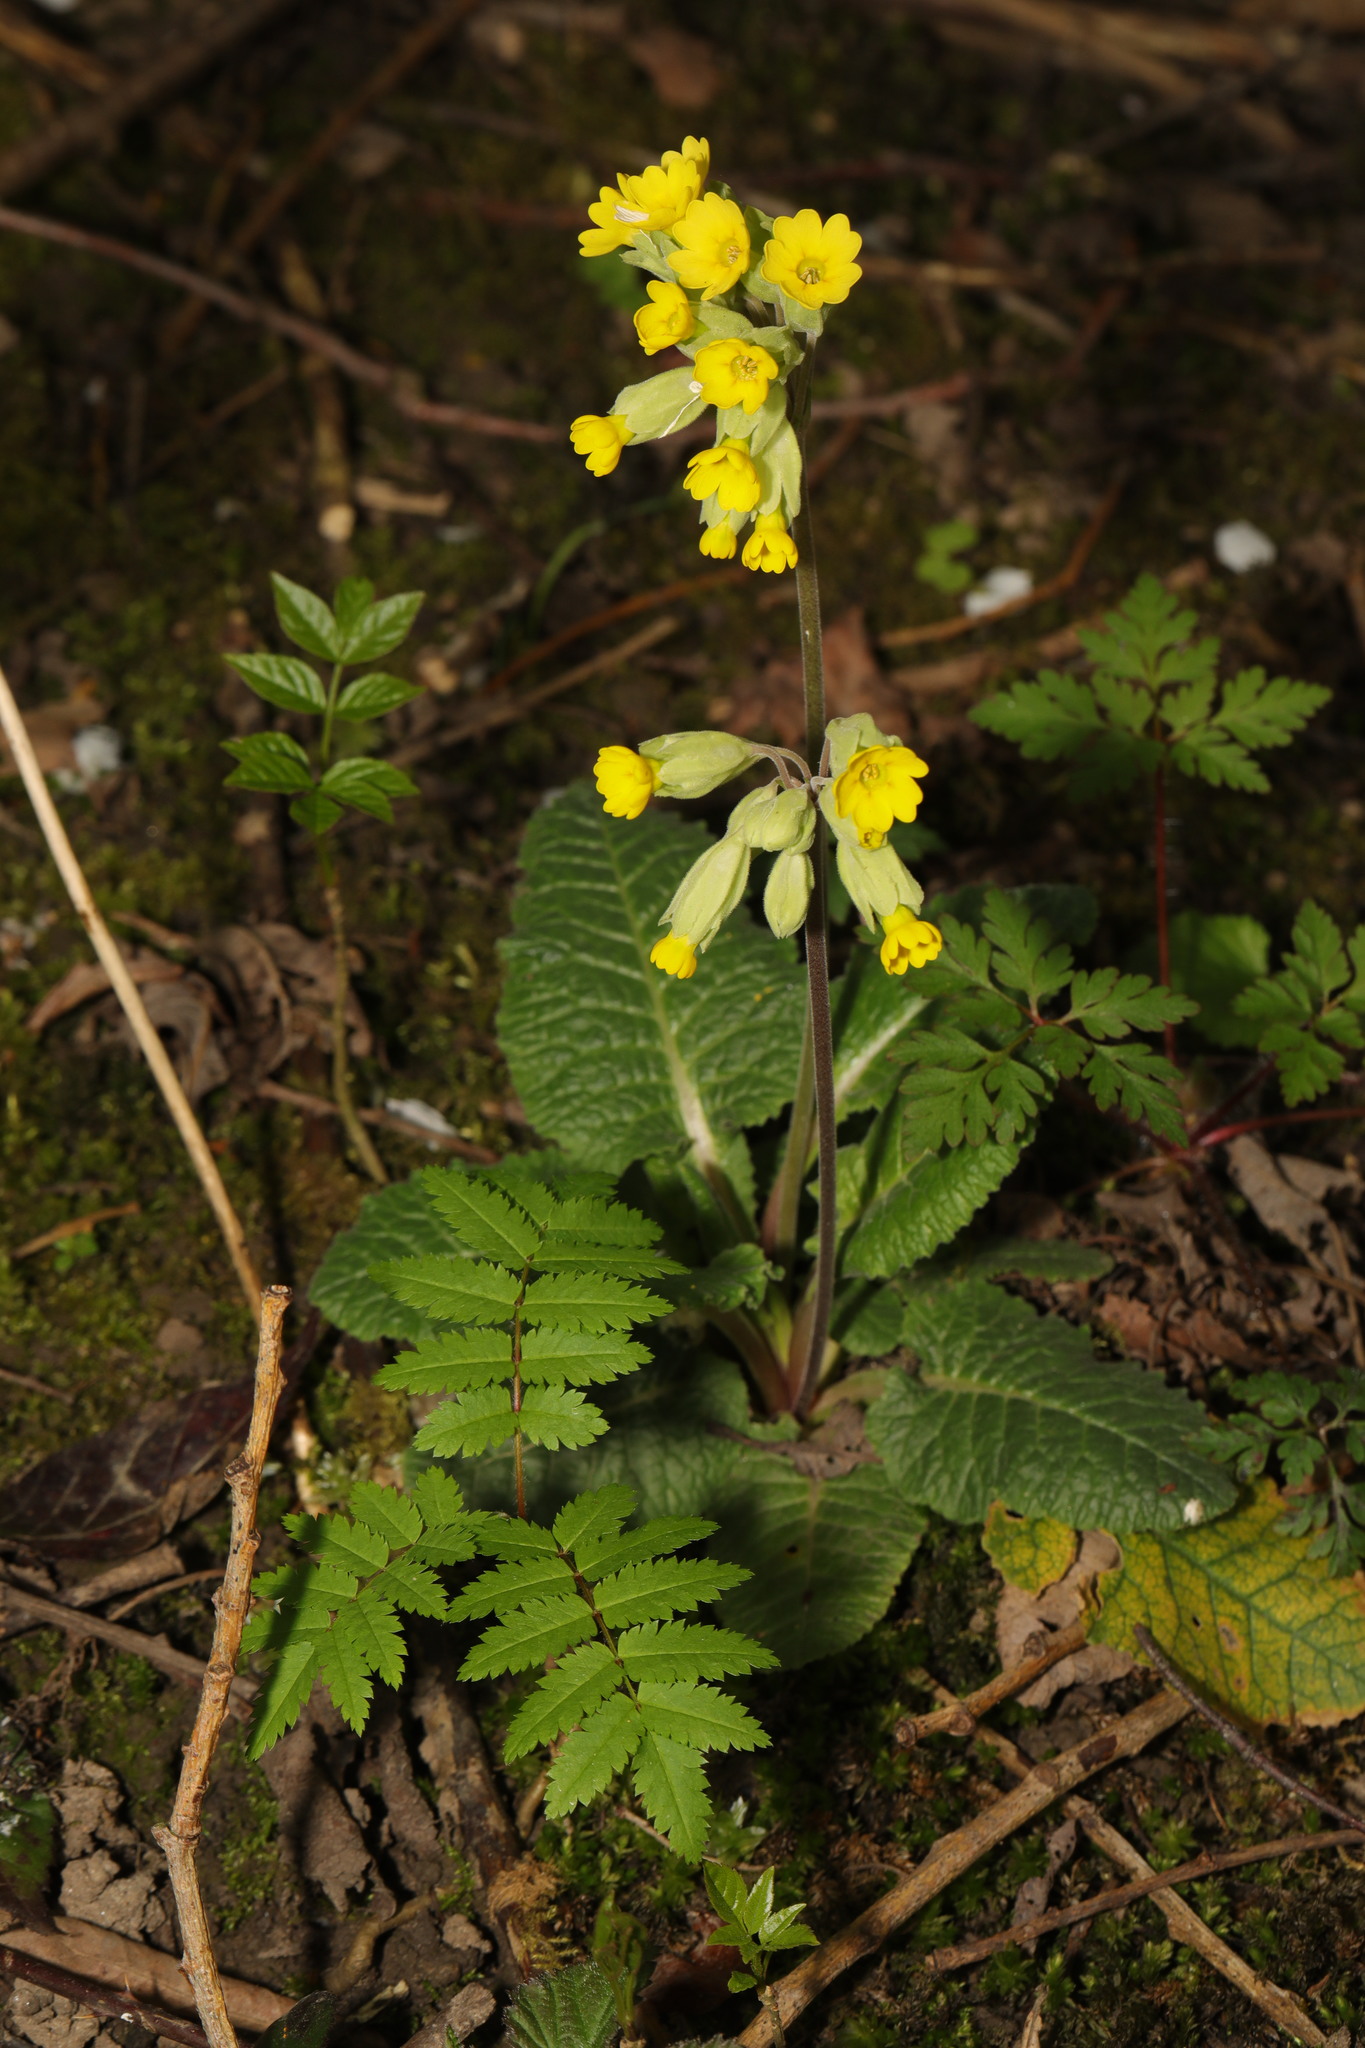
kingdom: Plantae
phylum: Tracheophyta
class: Magnoliopsida
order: Ericales
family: Primulaceae
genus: Primula
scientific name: Primula veris
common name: Cowslip
